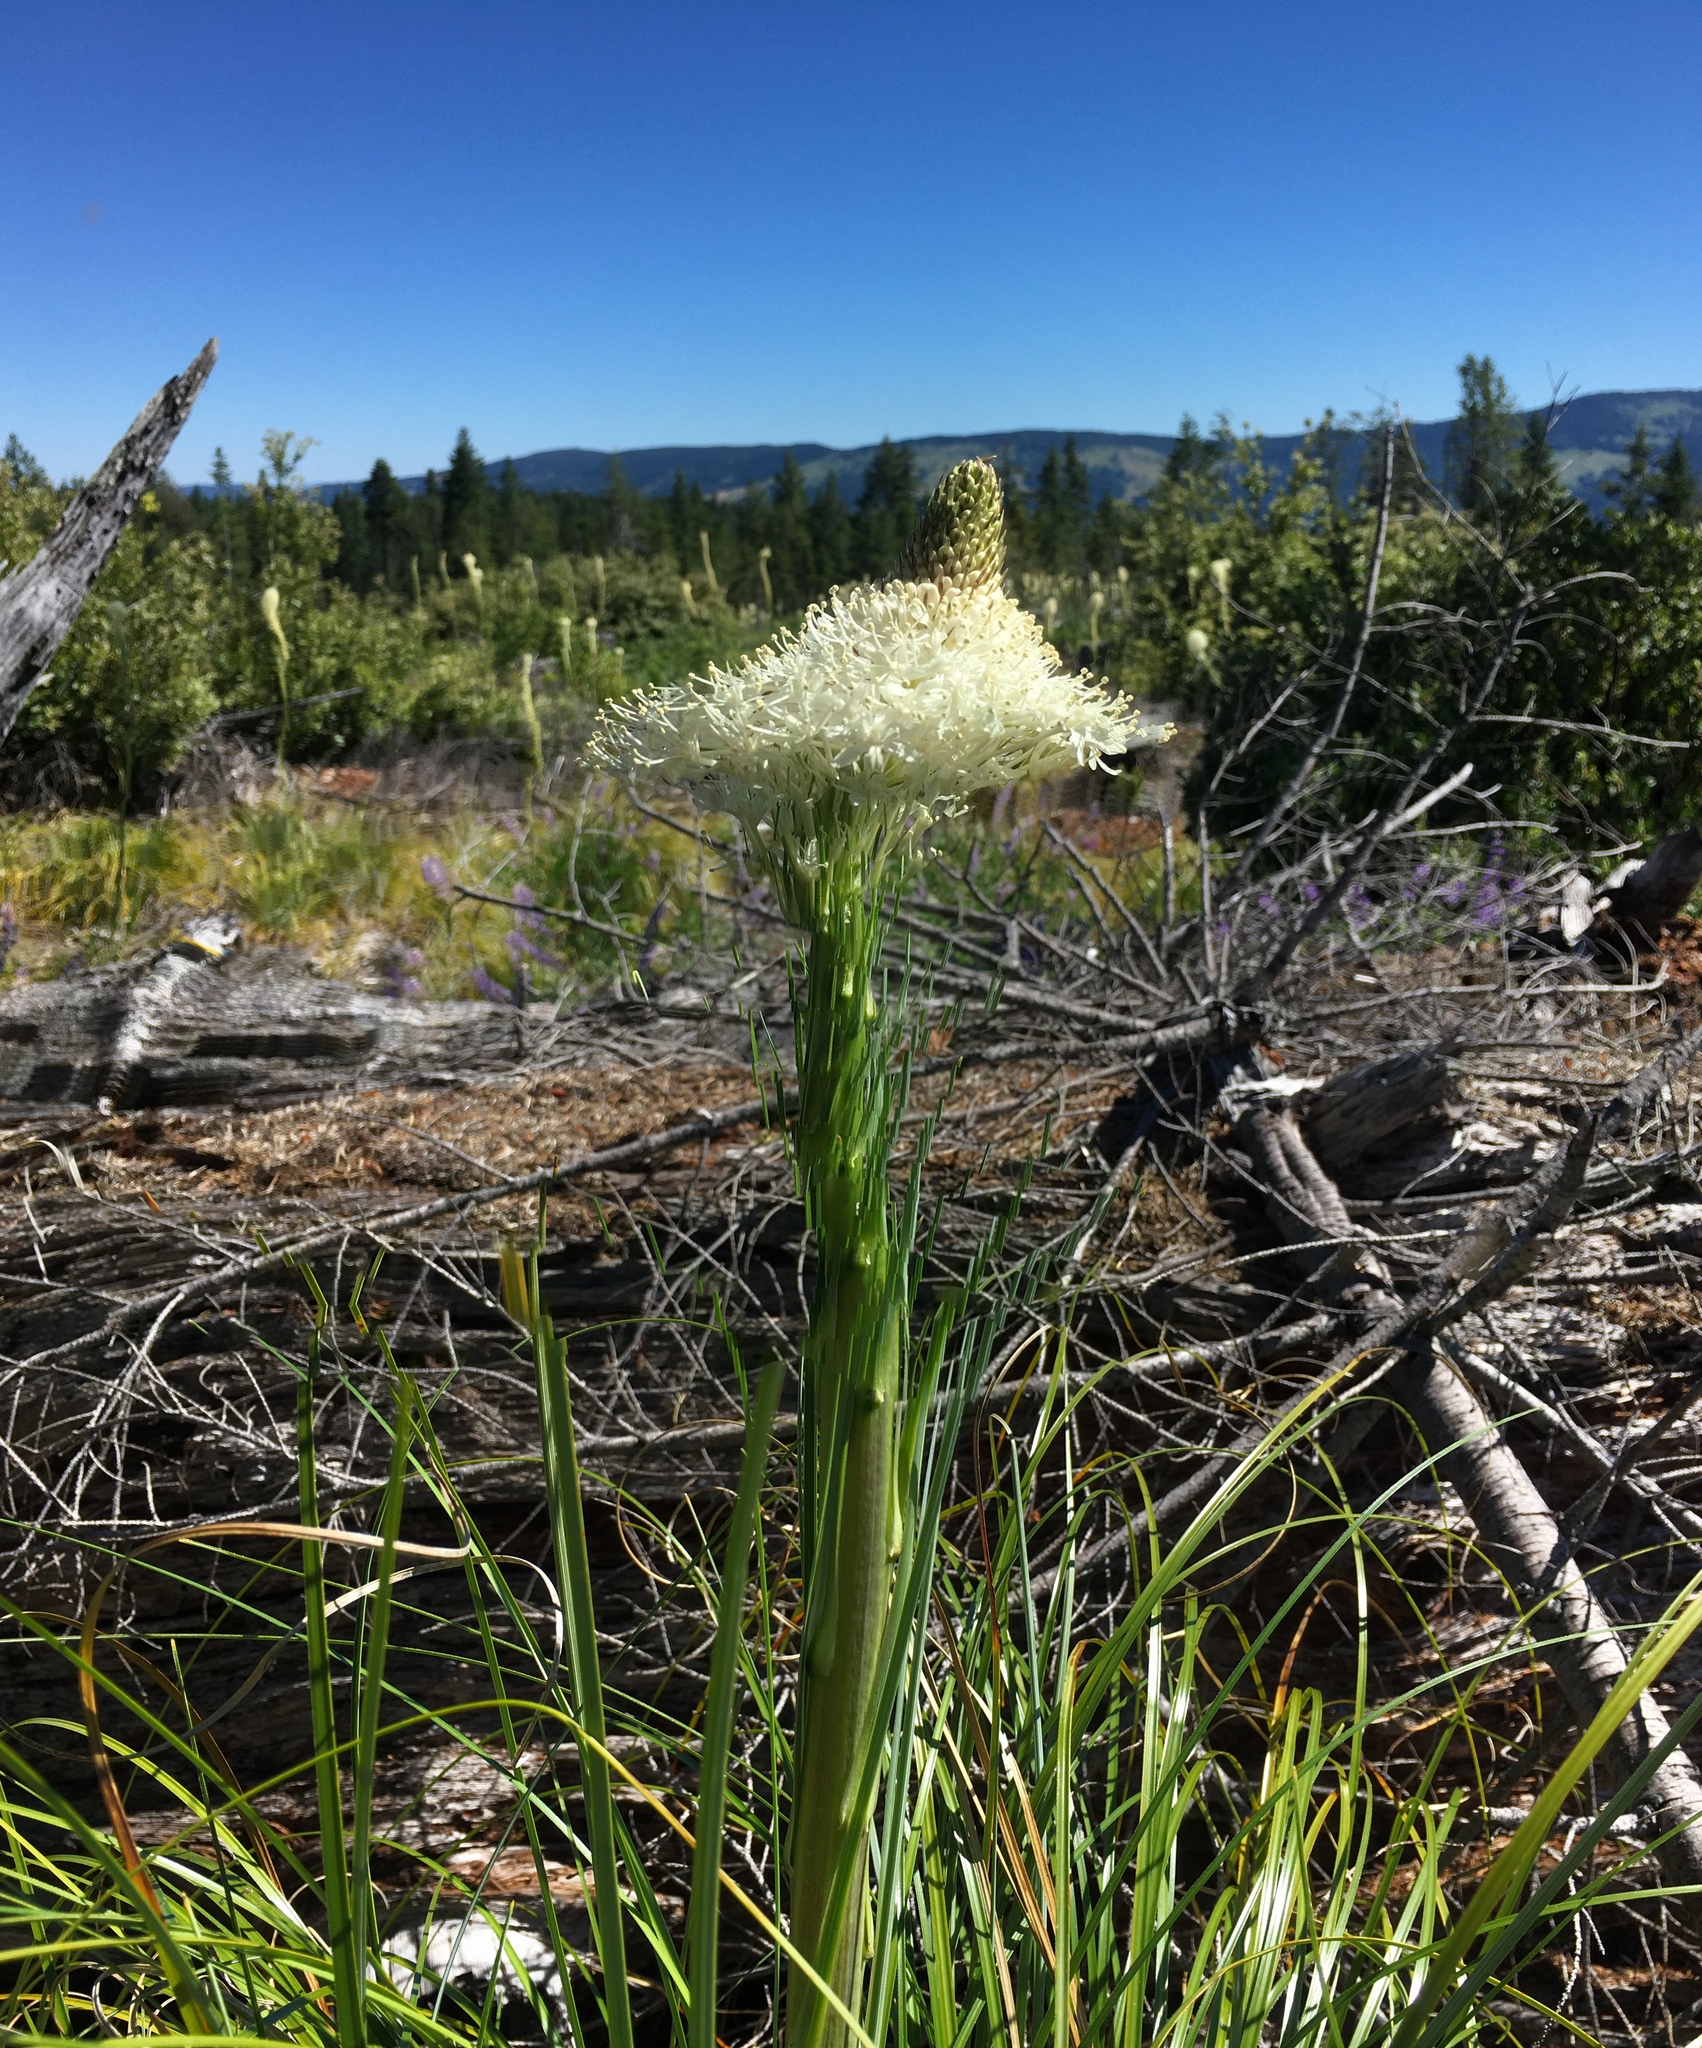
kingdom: Plantae
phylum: Tracheophyta
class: Liliopsida
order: Liliales
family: Melanthiaceae
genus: Xerophyllum
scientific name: Xerophyllum tenax
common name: Bear-grass
